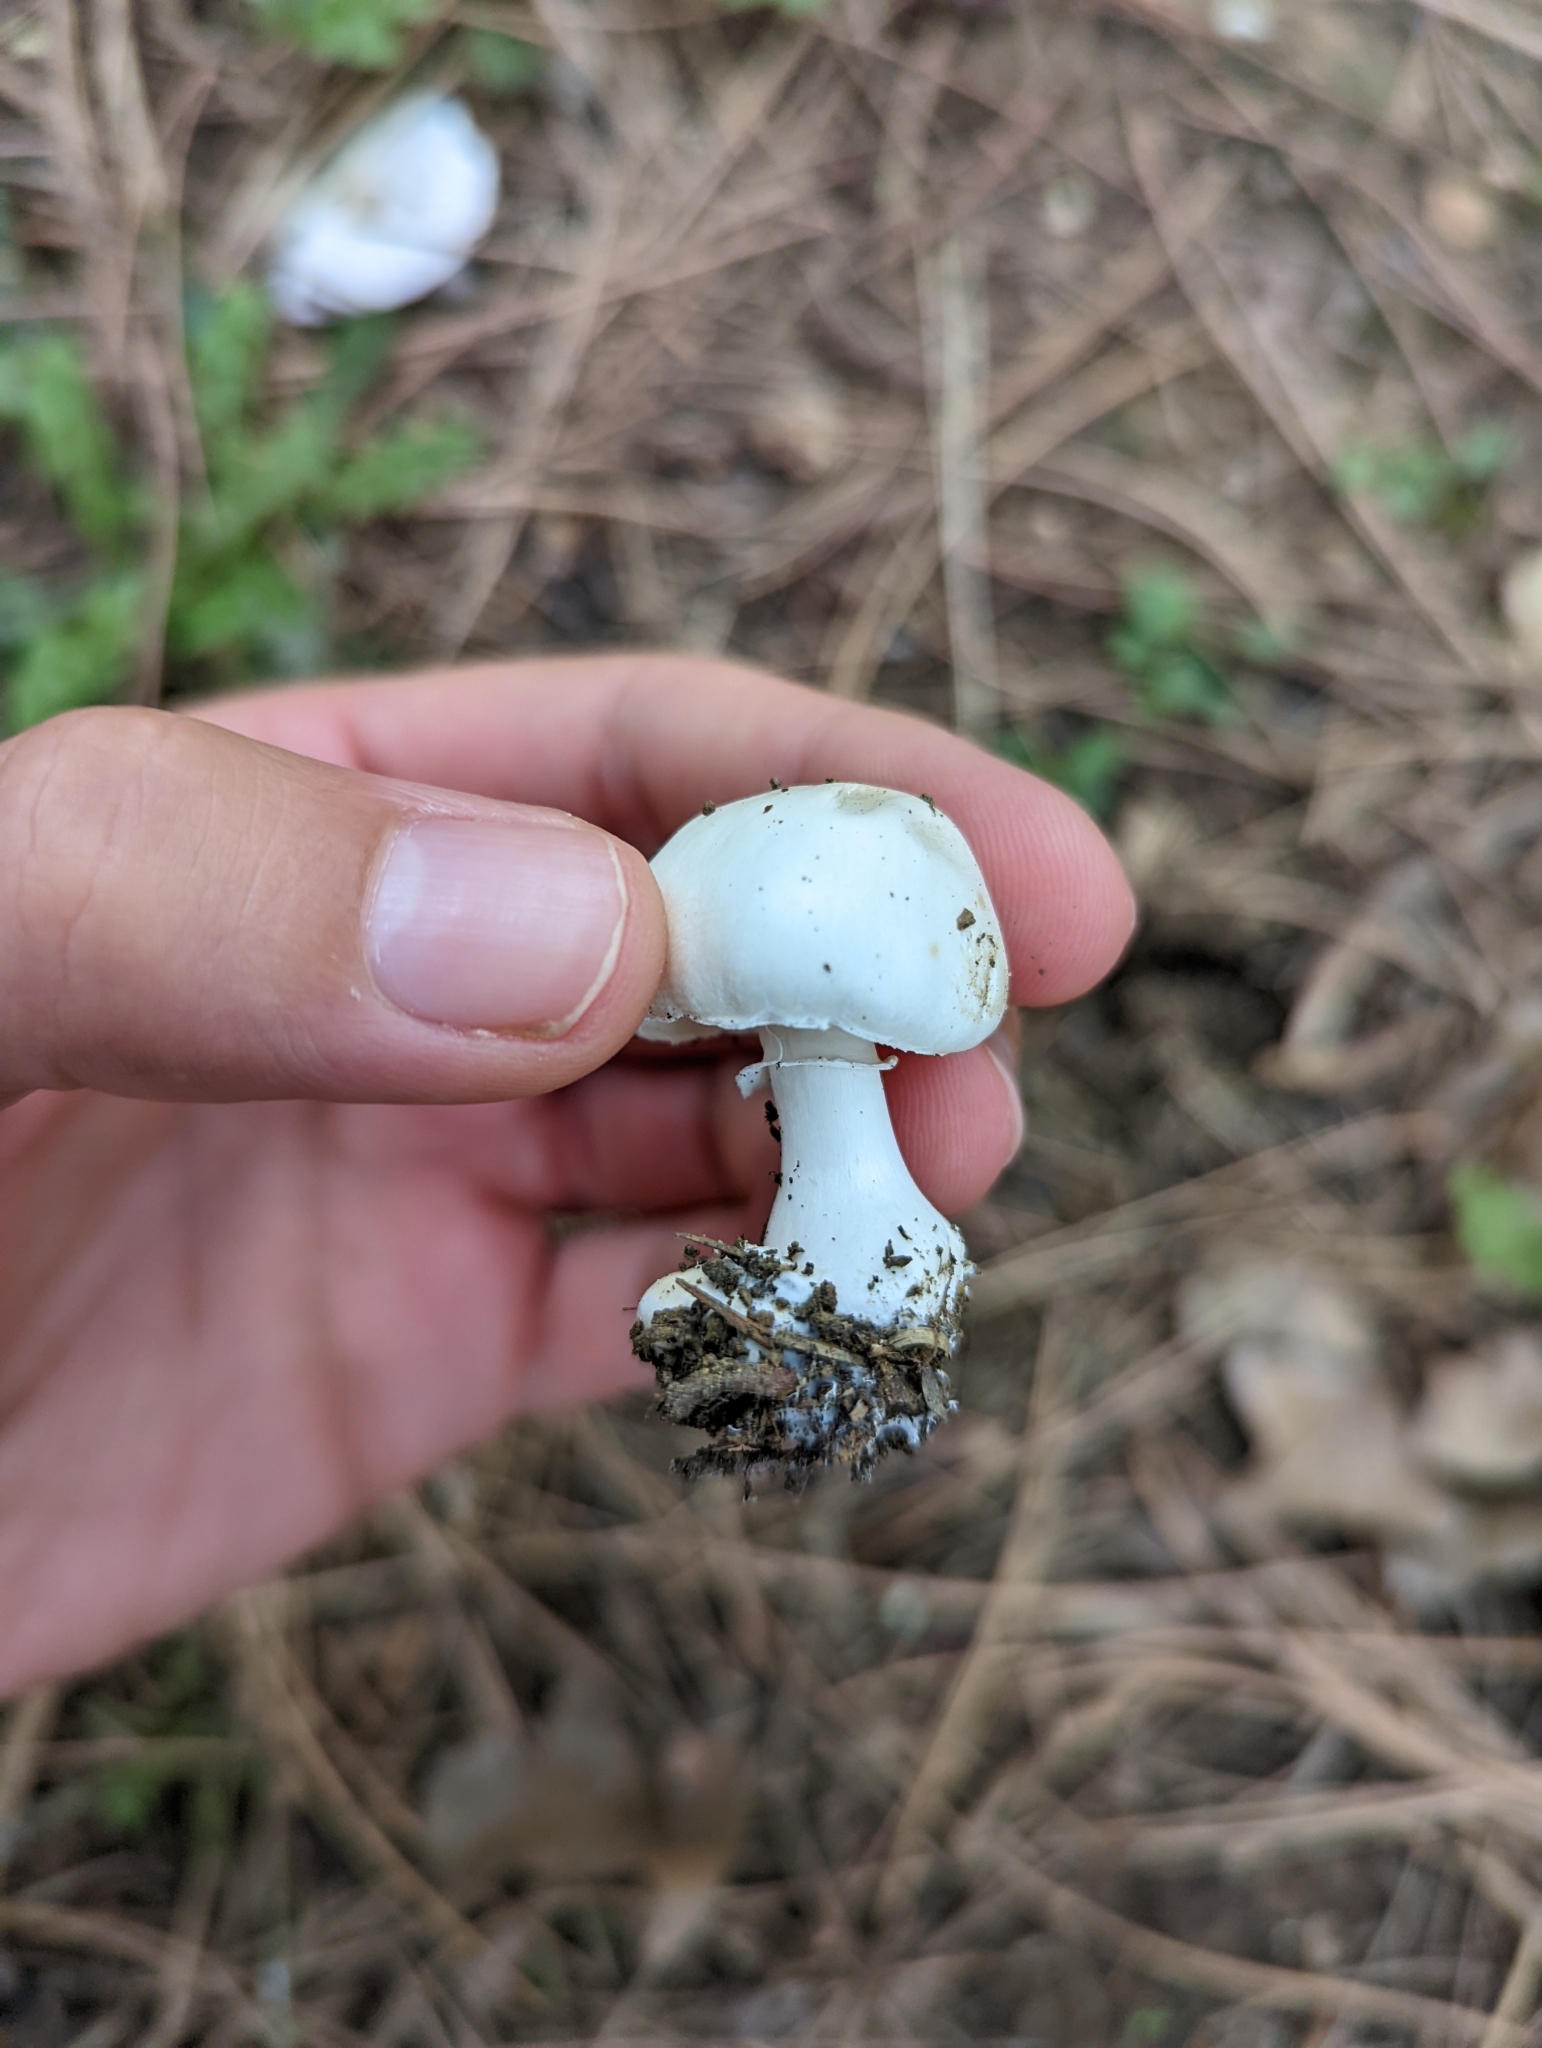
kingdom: Fungi
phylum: Basidiomycota
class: Agaricomycetes
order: Agaricales
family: Agaricaceae
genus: Leucoagaricus
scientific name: Leucoagaricus leucothites
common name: White dapperling
